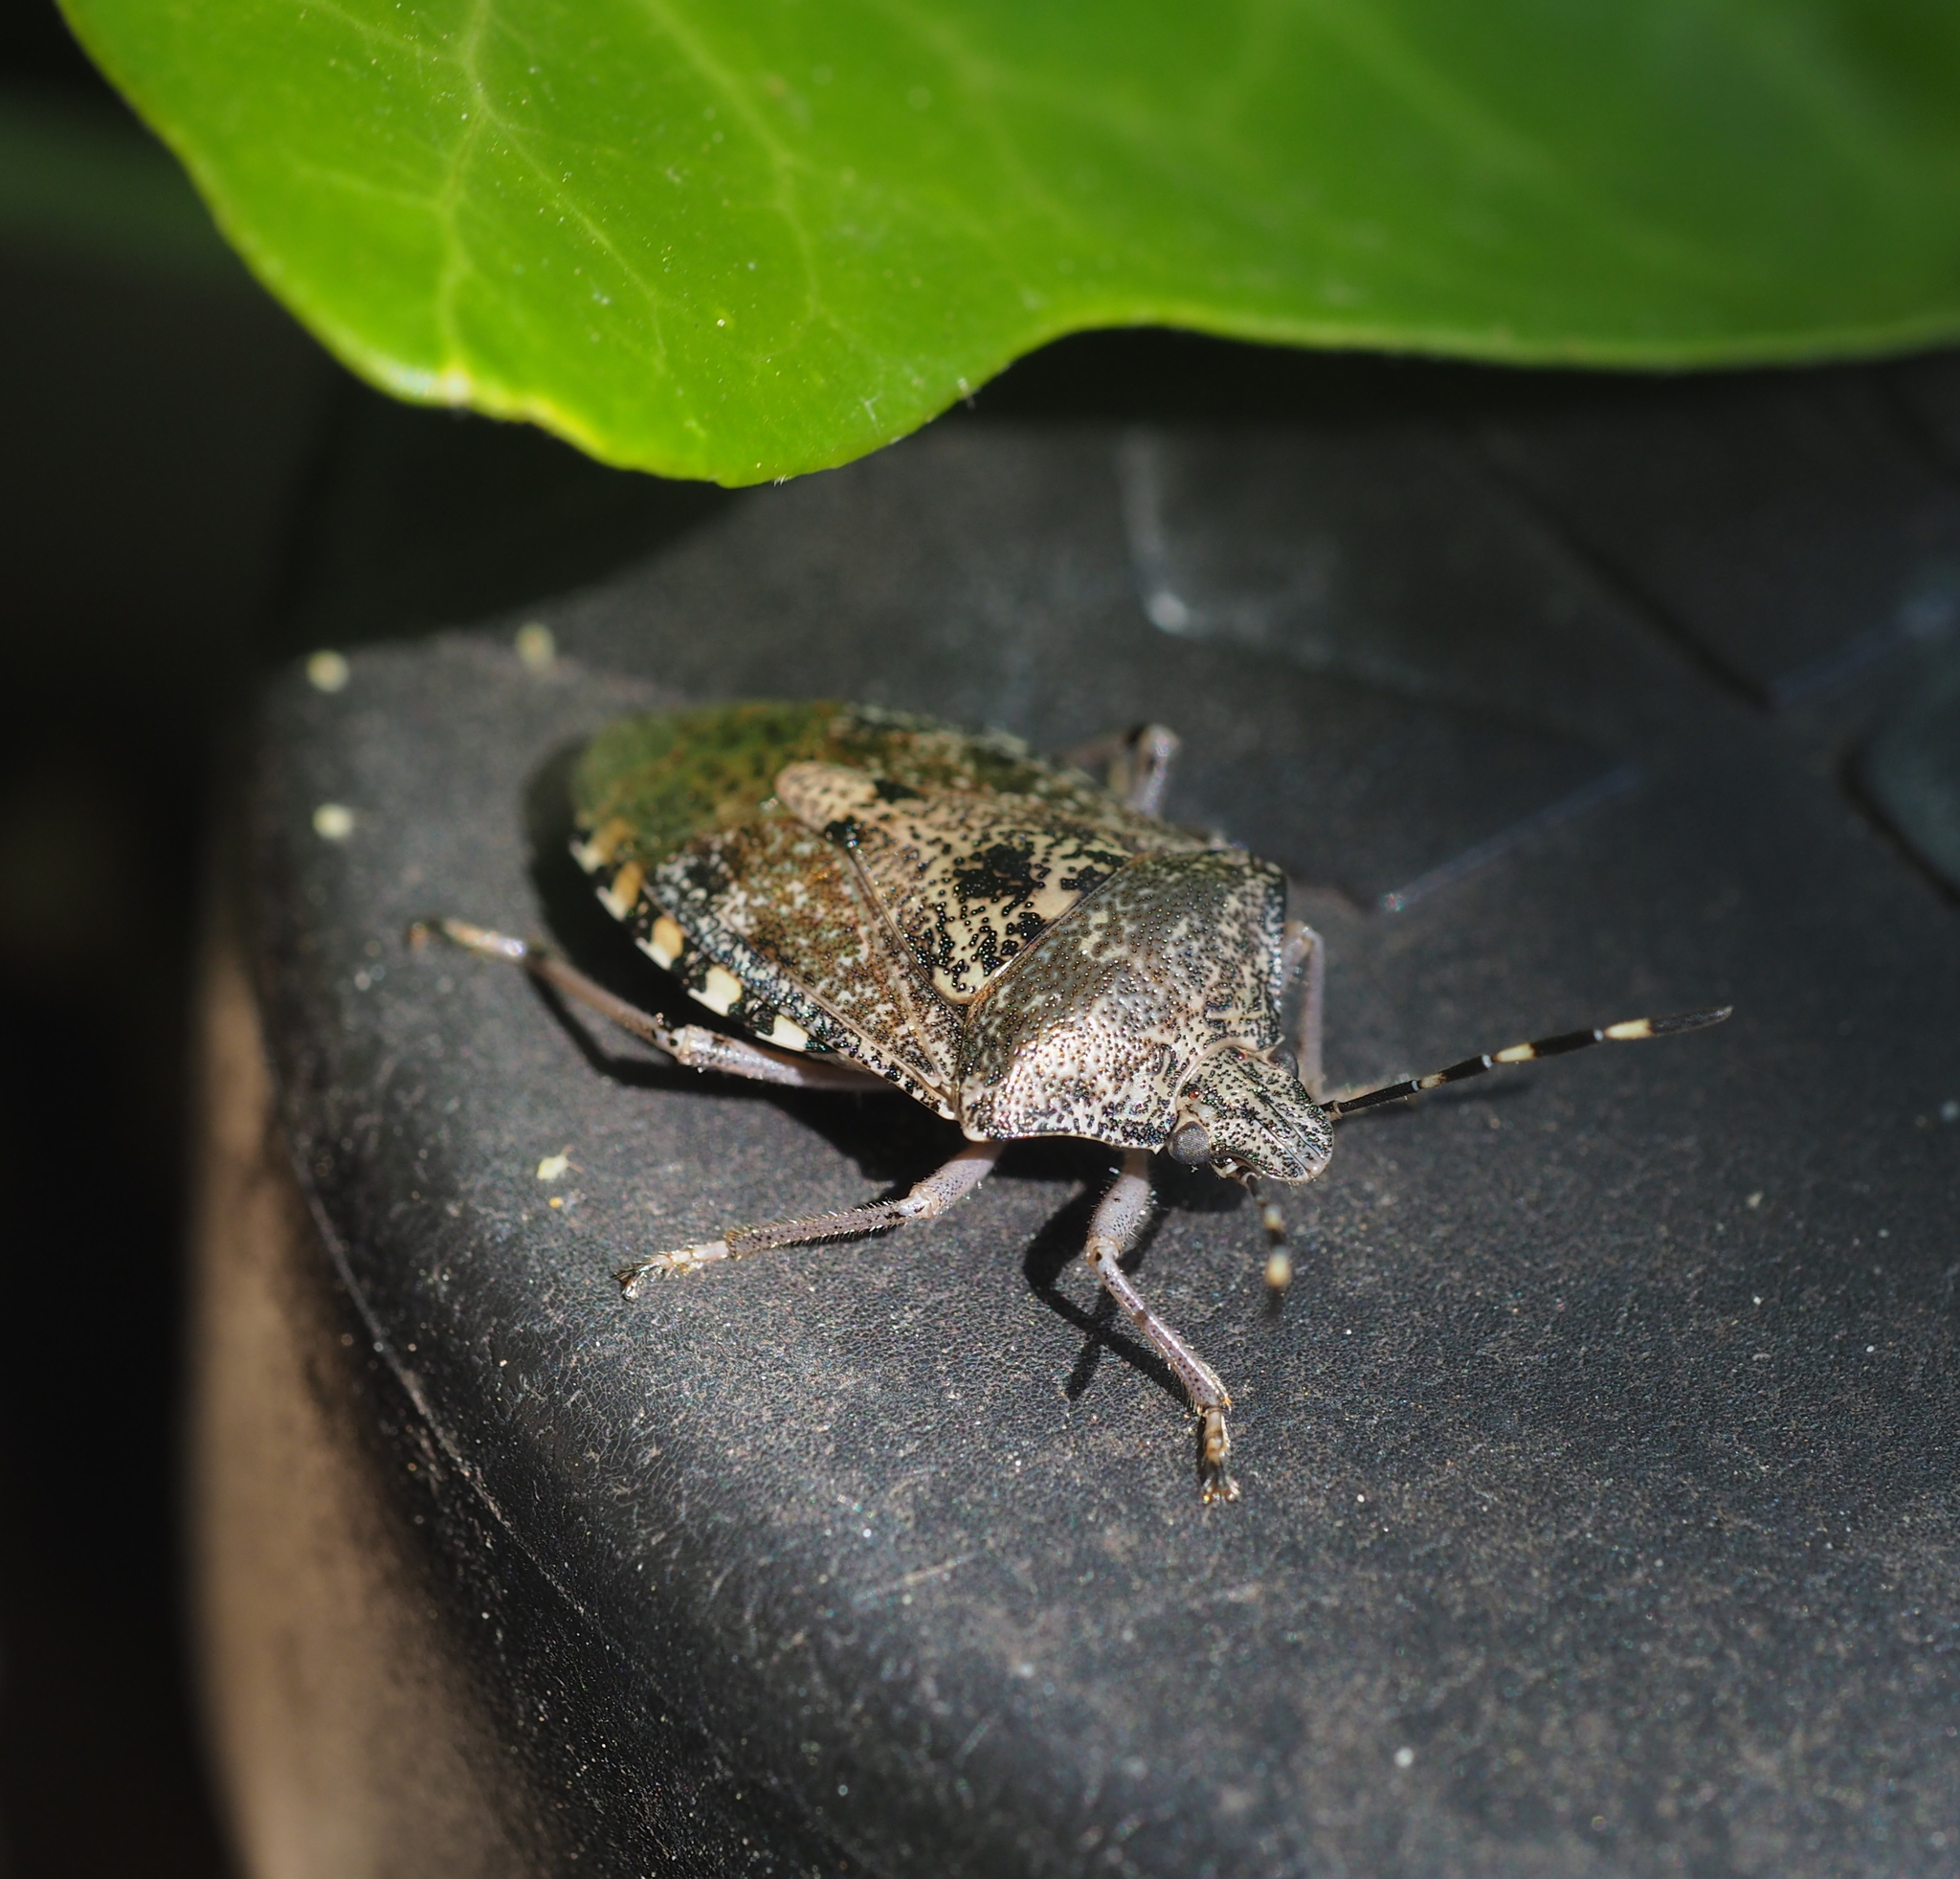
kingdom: Animalia
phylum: Arthropoda
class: Insecta
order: Hemiptera
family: Pentatomidae
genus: Rhaphigaster
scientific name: Rhaphigaster nebulosa
